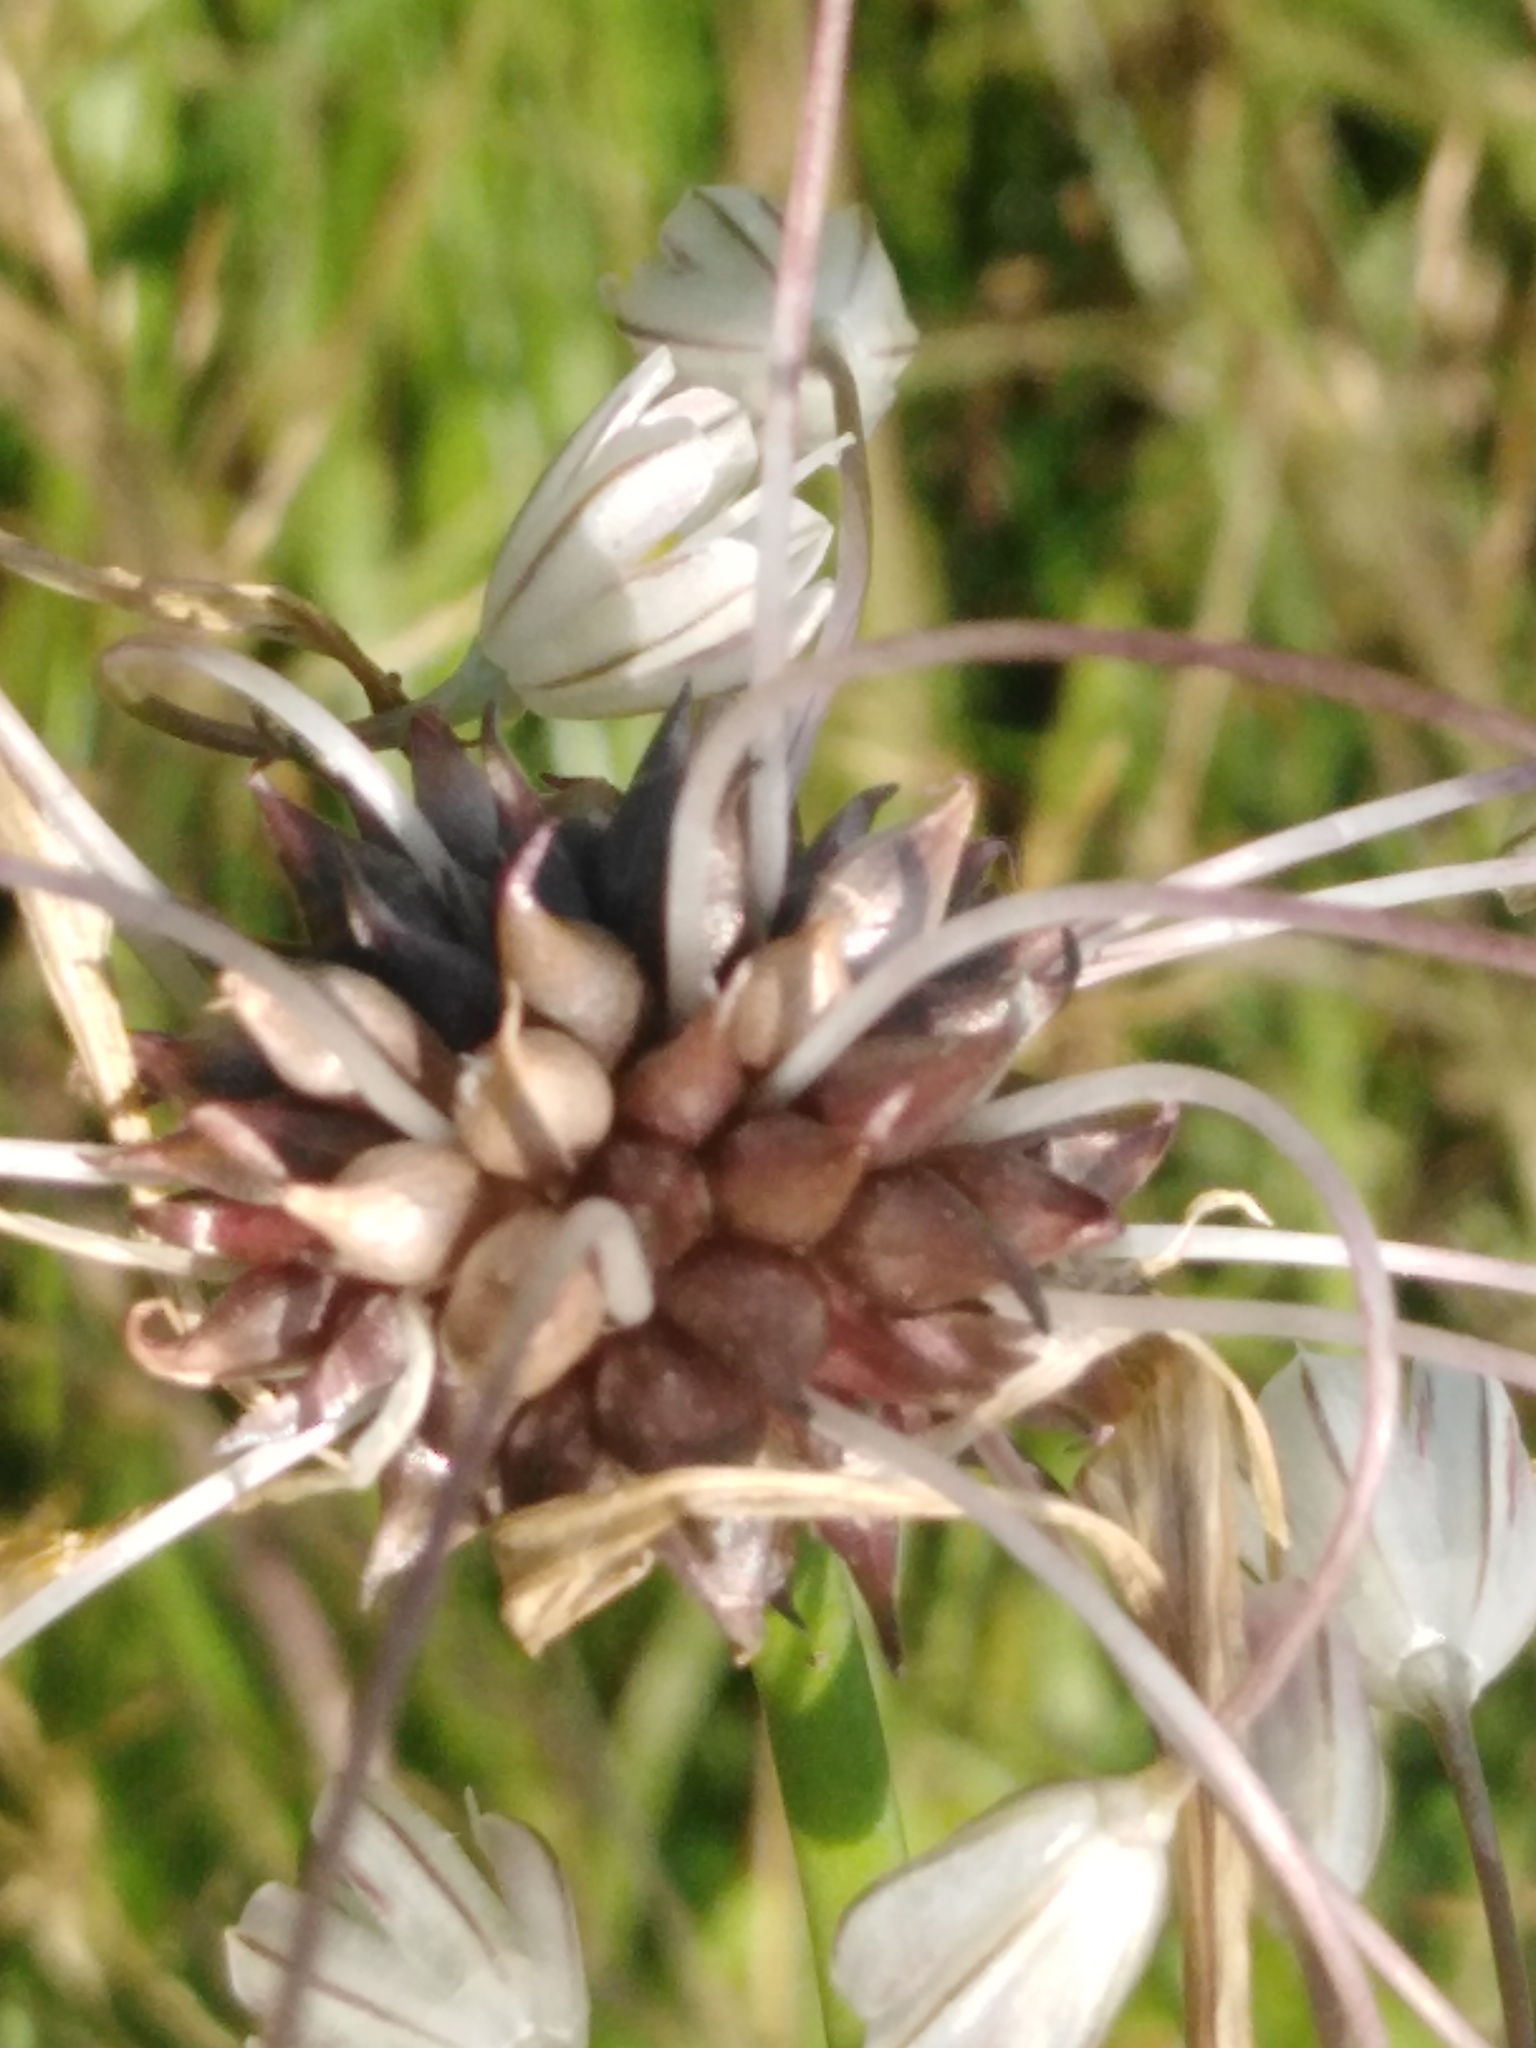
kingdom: Plantae
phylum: Tracheophyta
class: Liliopsida
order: Asparagales
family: Amaryllidaceae
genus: Allium
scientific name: Allium oleraceum
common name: Field garlic
